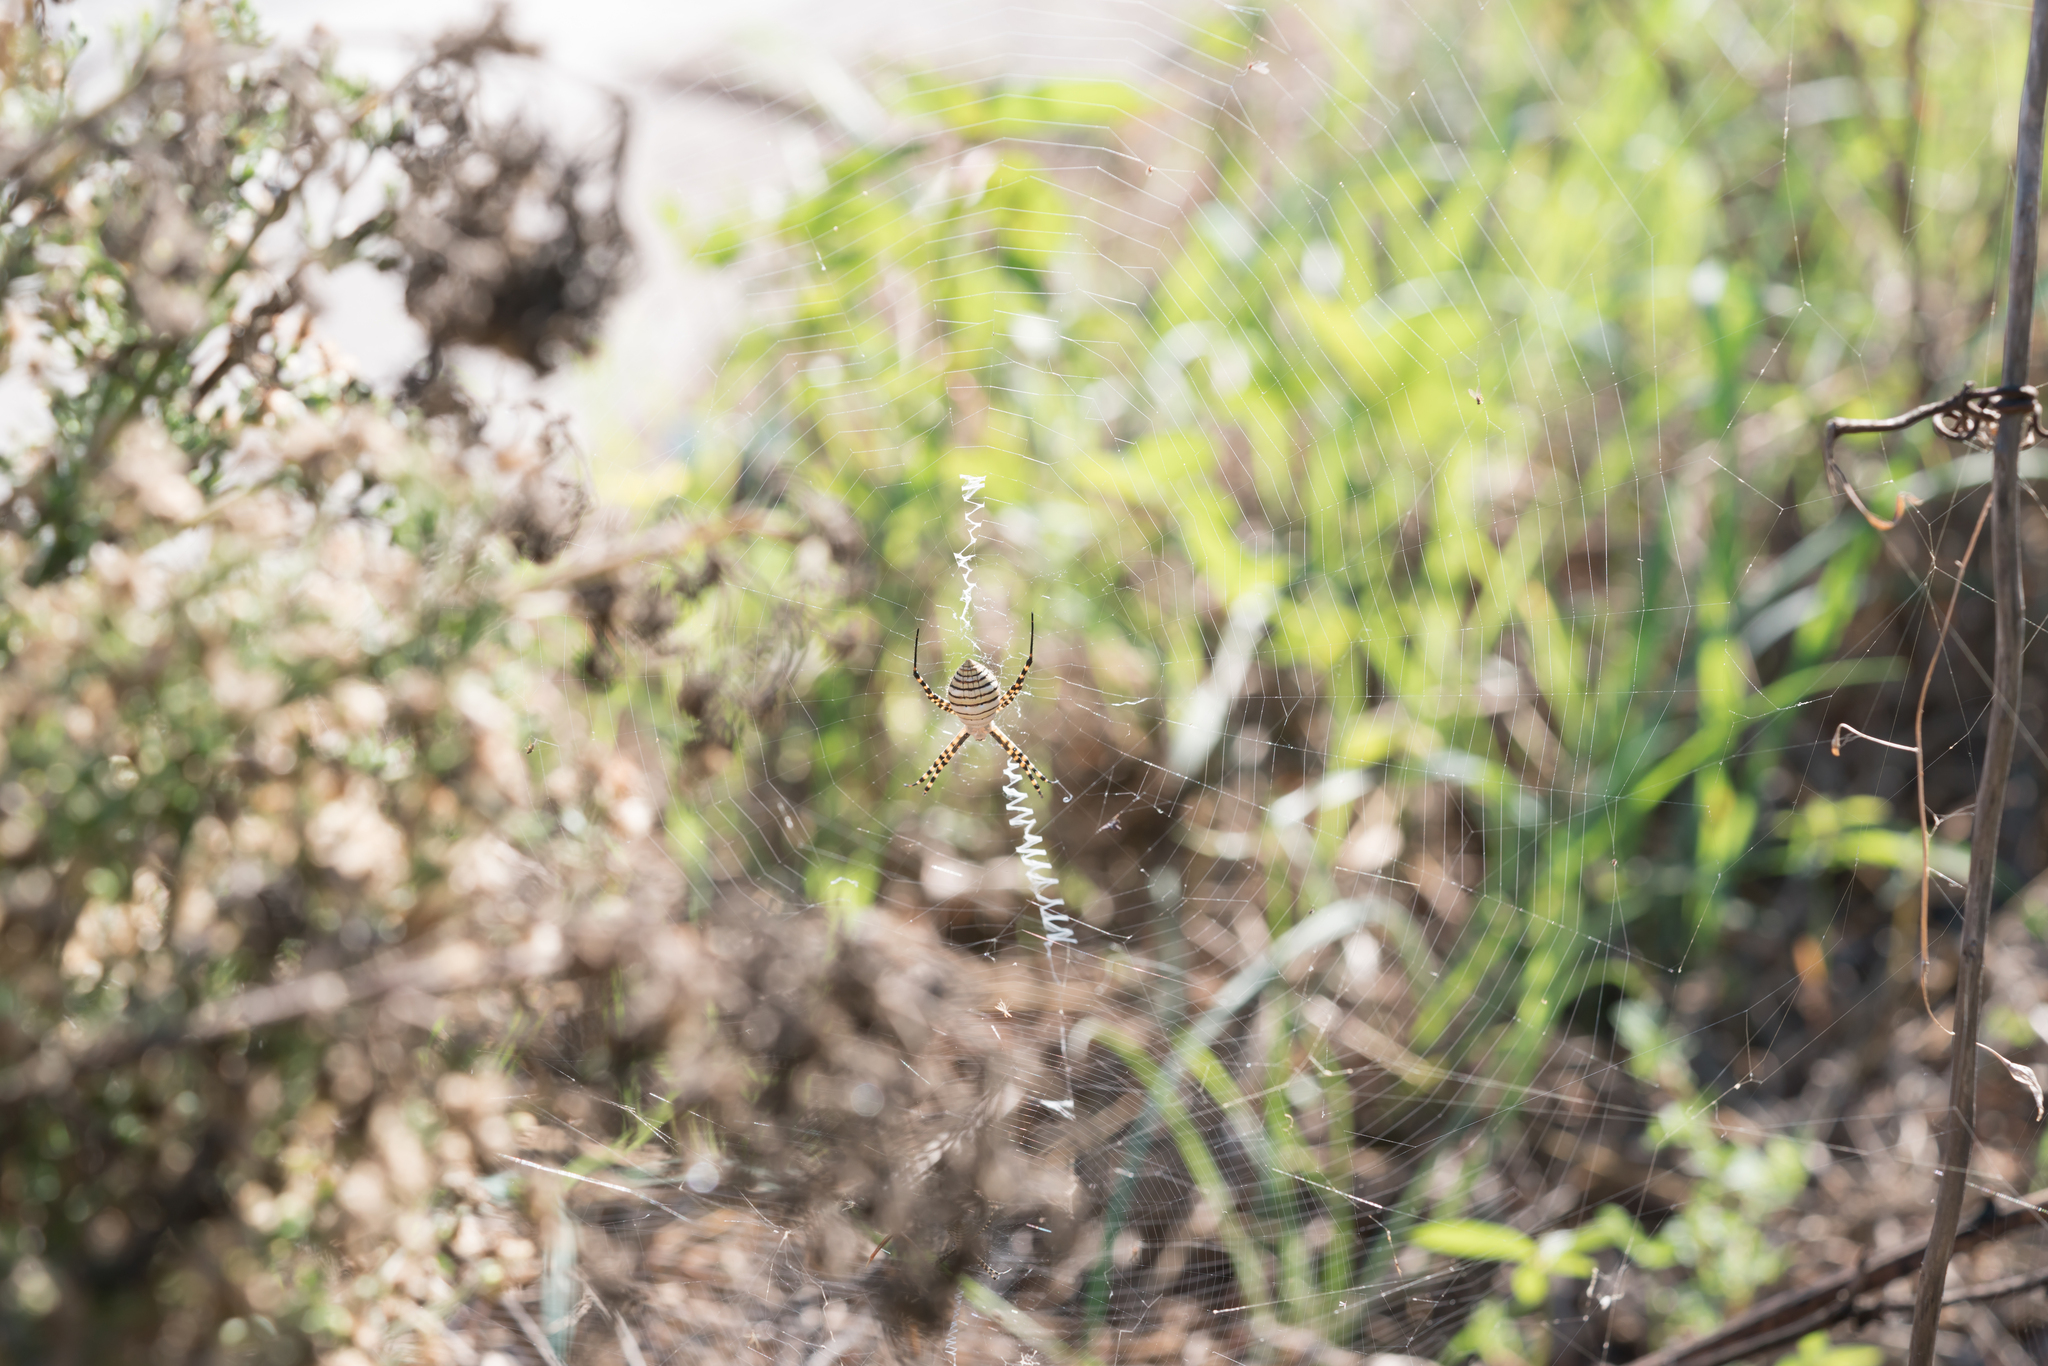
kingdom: Animalia
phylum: Arthropoda
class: Arachnida
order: Araneae
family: Araneidae
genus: Argiope
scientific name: Argiope trifasciata
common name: Banded garden spider
